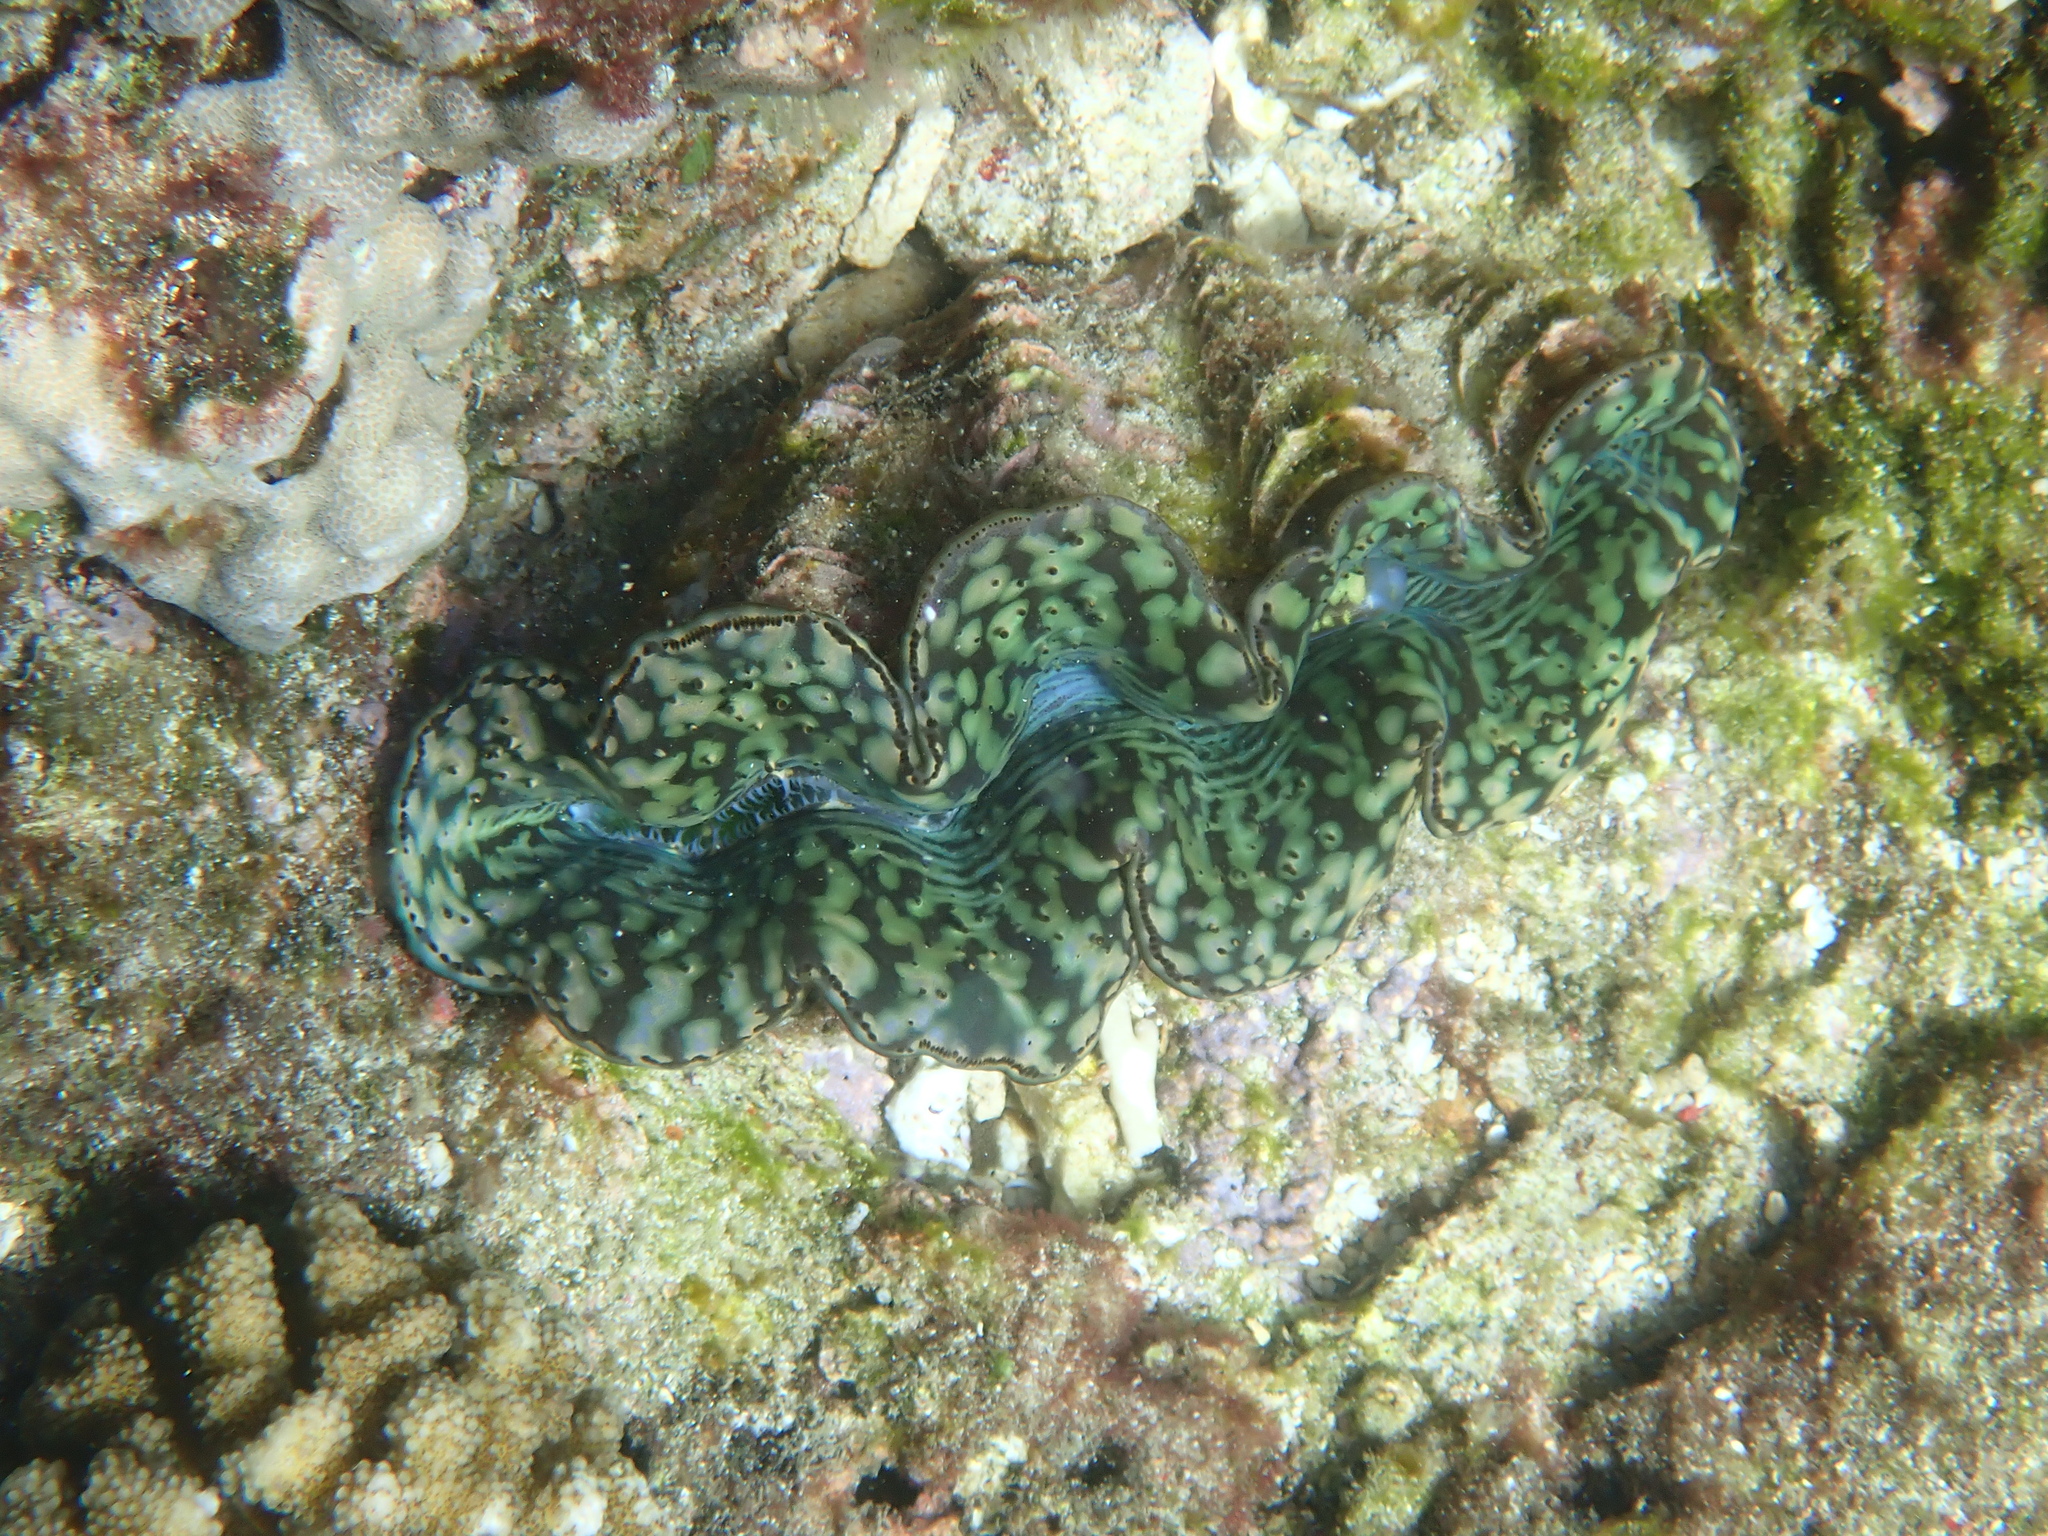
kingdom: Animalia
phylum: Mollusca
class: Bivalvia
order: Cardiida
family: Cardiidae
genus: Tridacna
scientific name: Tridacna maxima
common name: Small giant clam
